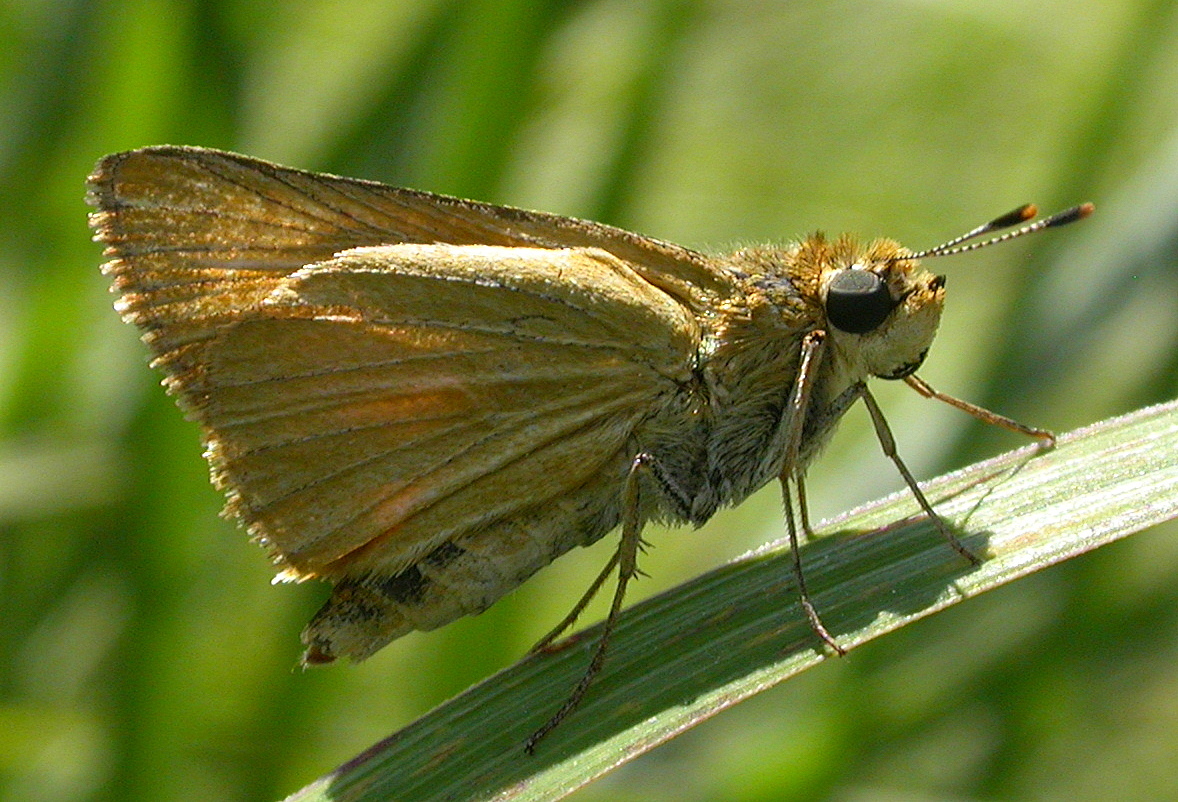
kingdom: Animalia
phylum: Arthropoda
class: Insecta
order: Lepidoptera
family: Hesperiidae
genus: Atrytone
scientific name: Atrytone delaware
